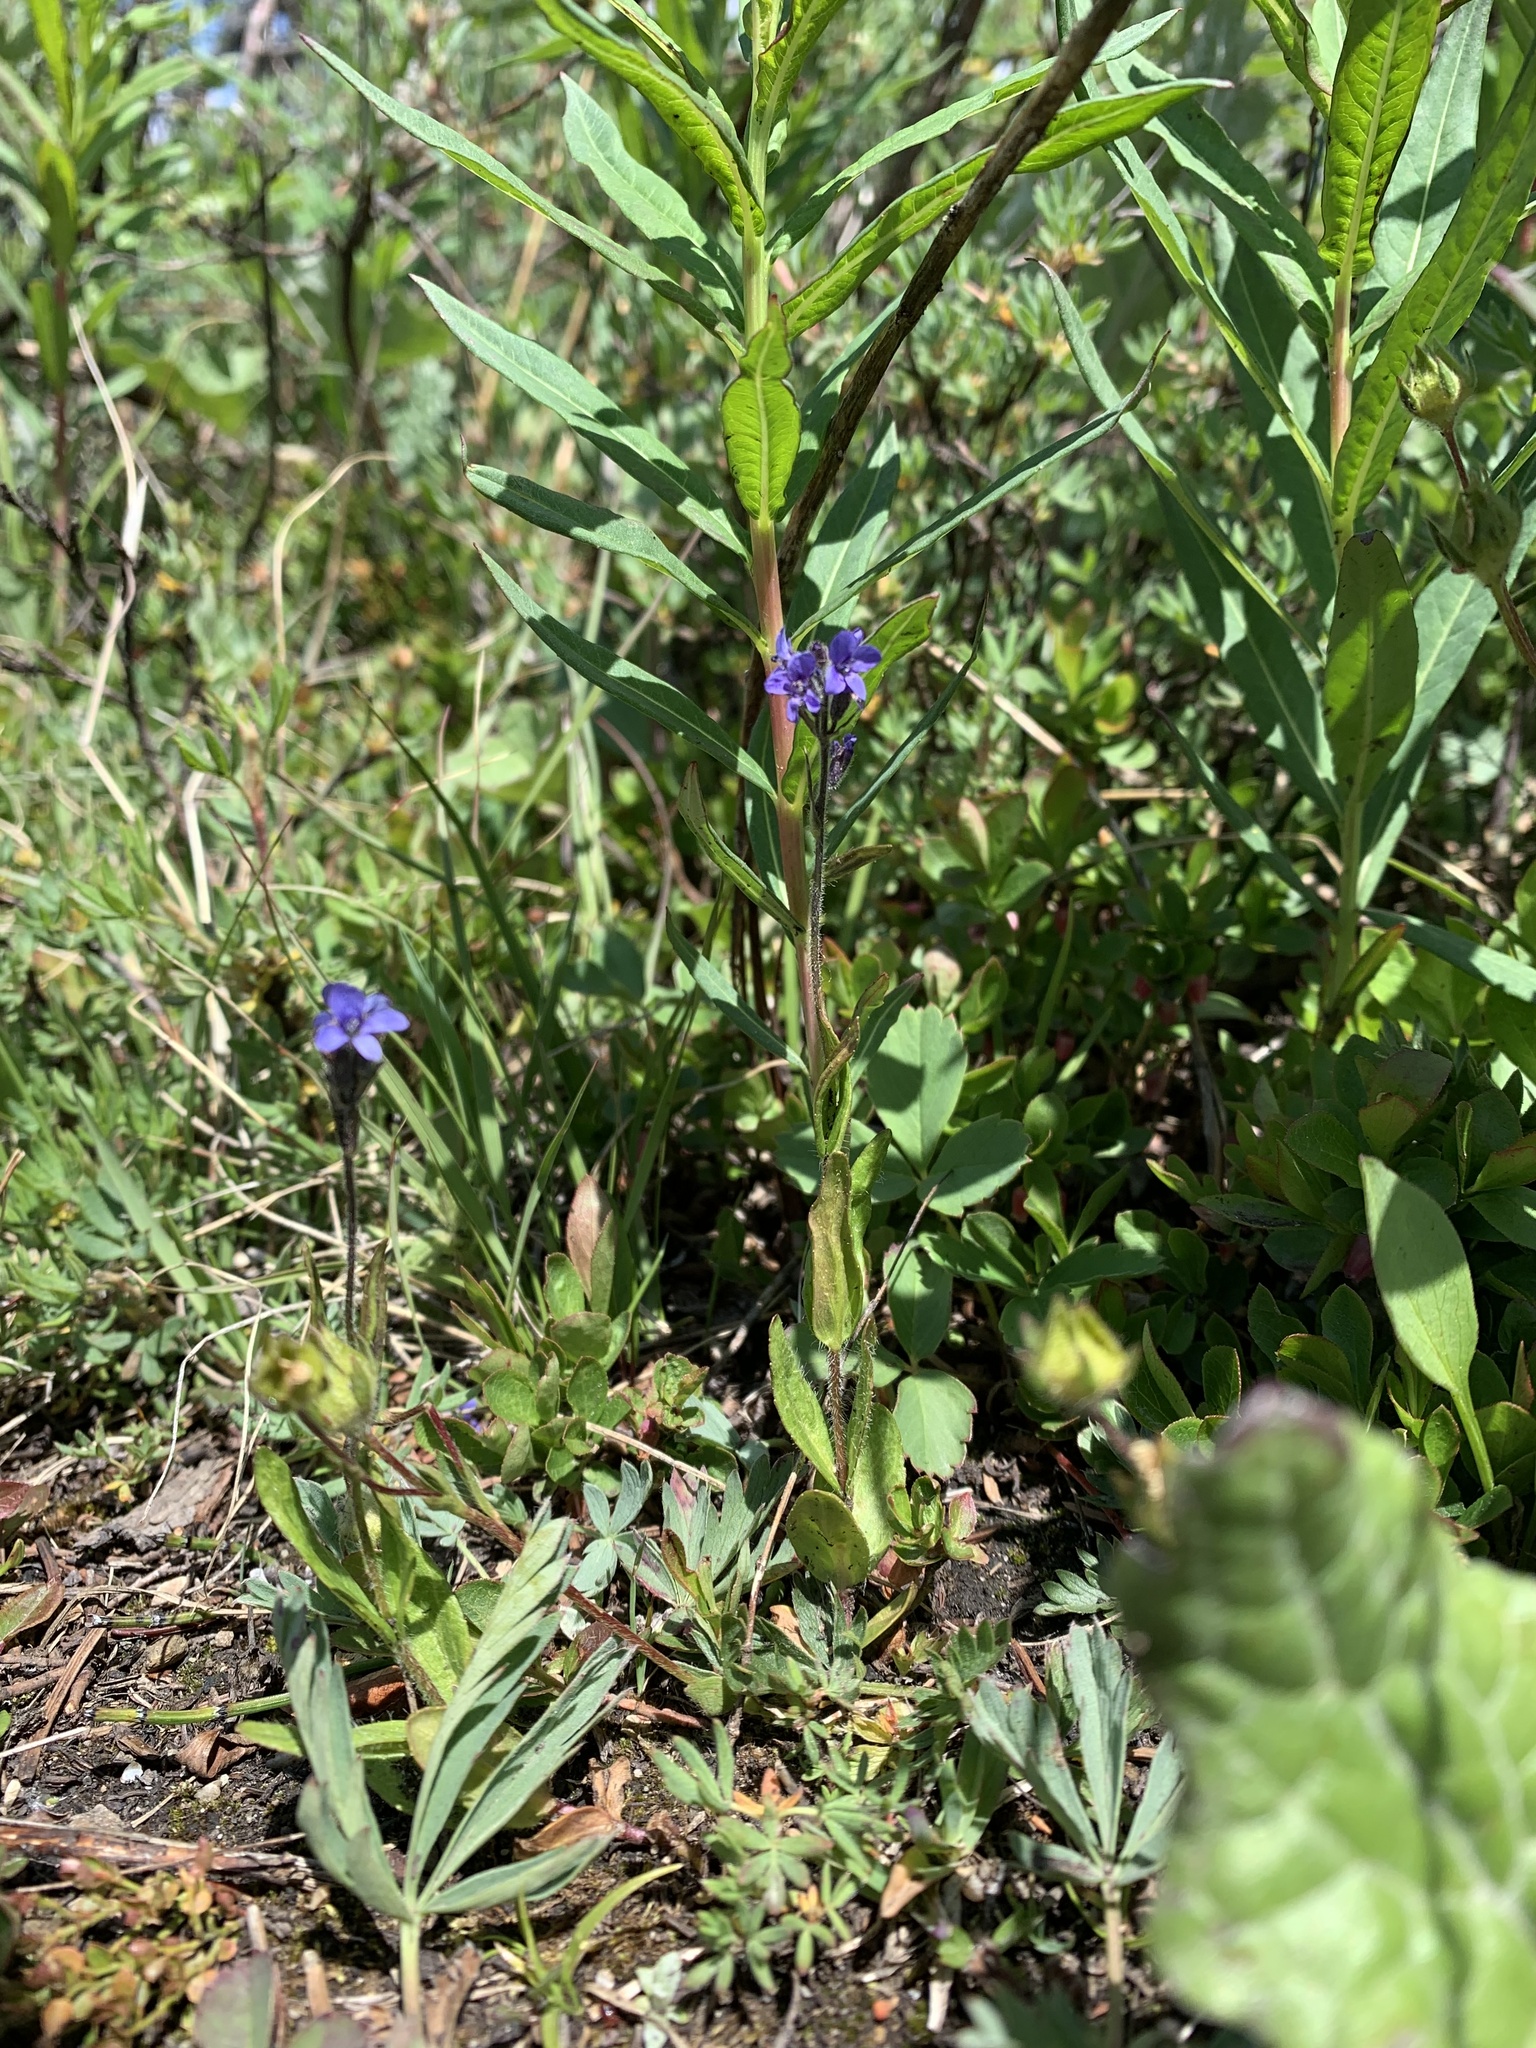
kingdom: Plantae
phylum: Tracheophyta
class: Magnoliopsida
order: Lamiales
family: Plantaginaceae
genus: Veronica
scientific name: Veronica wormskjoldii
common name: American alpine speedwell
